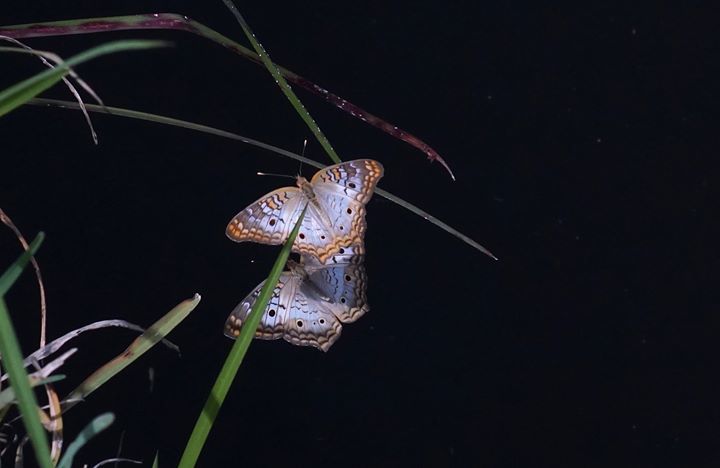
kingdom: Animalia
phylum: Arthropoda
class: Insecta
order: Lepidoptera
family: Nymphalidae
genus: Anartia
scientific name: Anartia jatrophae
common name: White peacock
